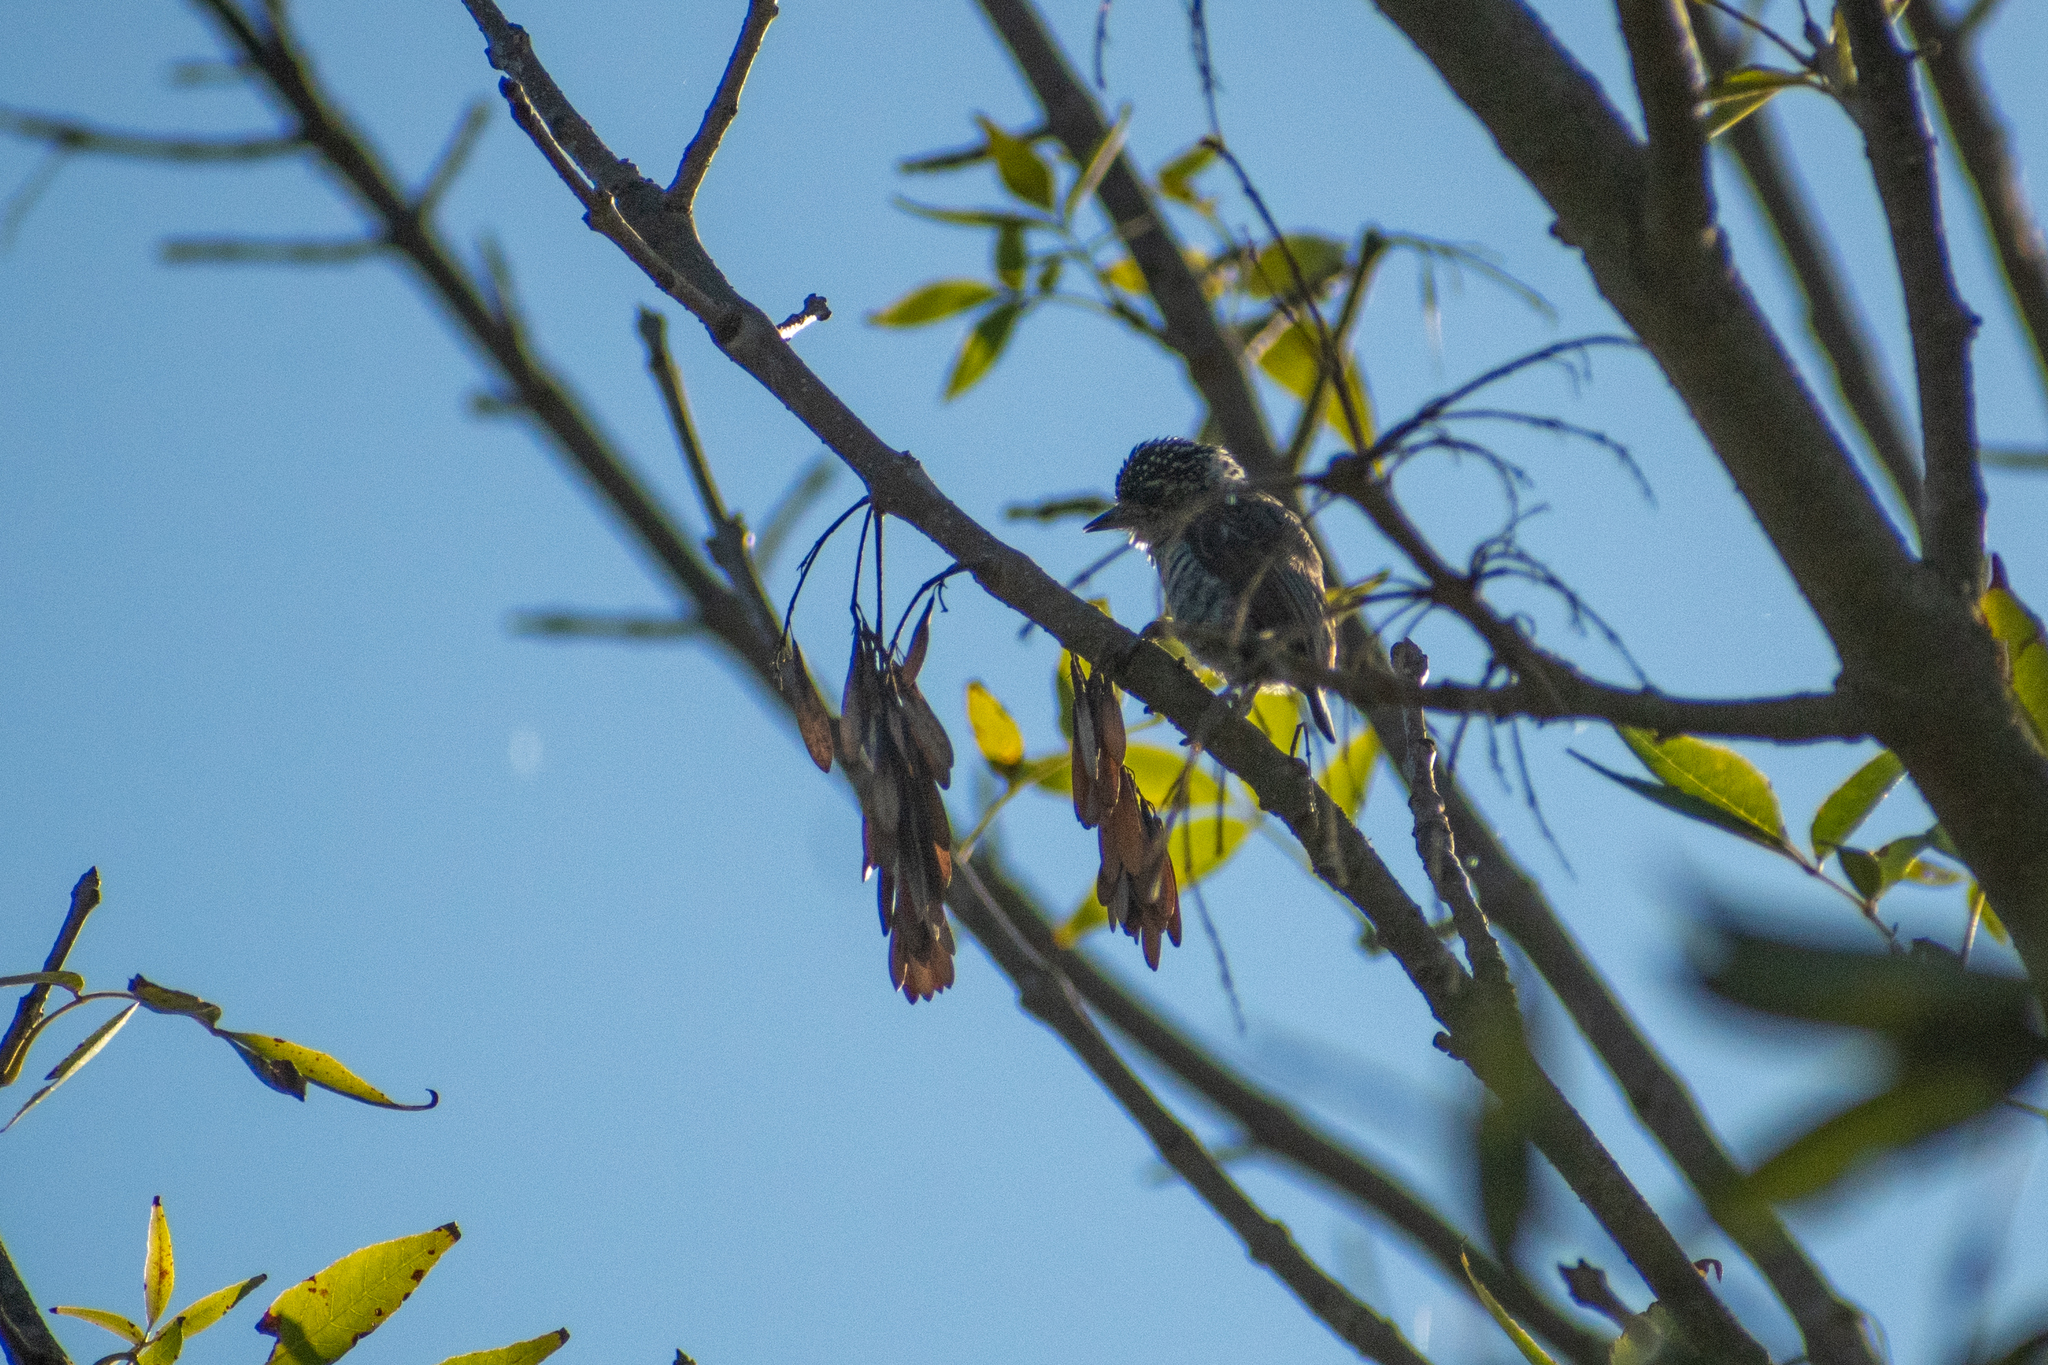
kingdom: Animalia
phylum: Chordata
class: Aves
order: Piciformes
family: Picidae
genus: Picumnus
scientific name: Picumnus cirratus
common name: White-barred piculet
